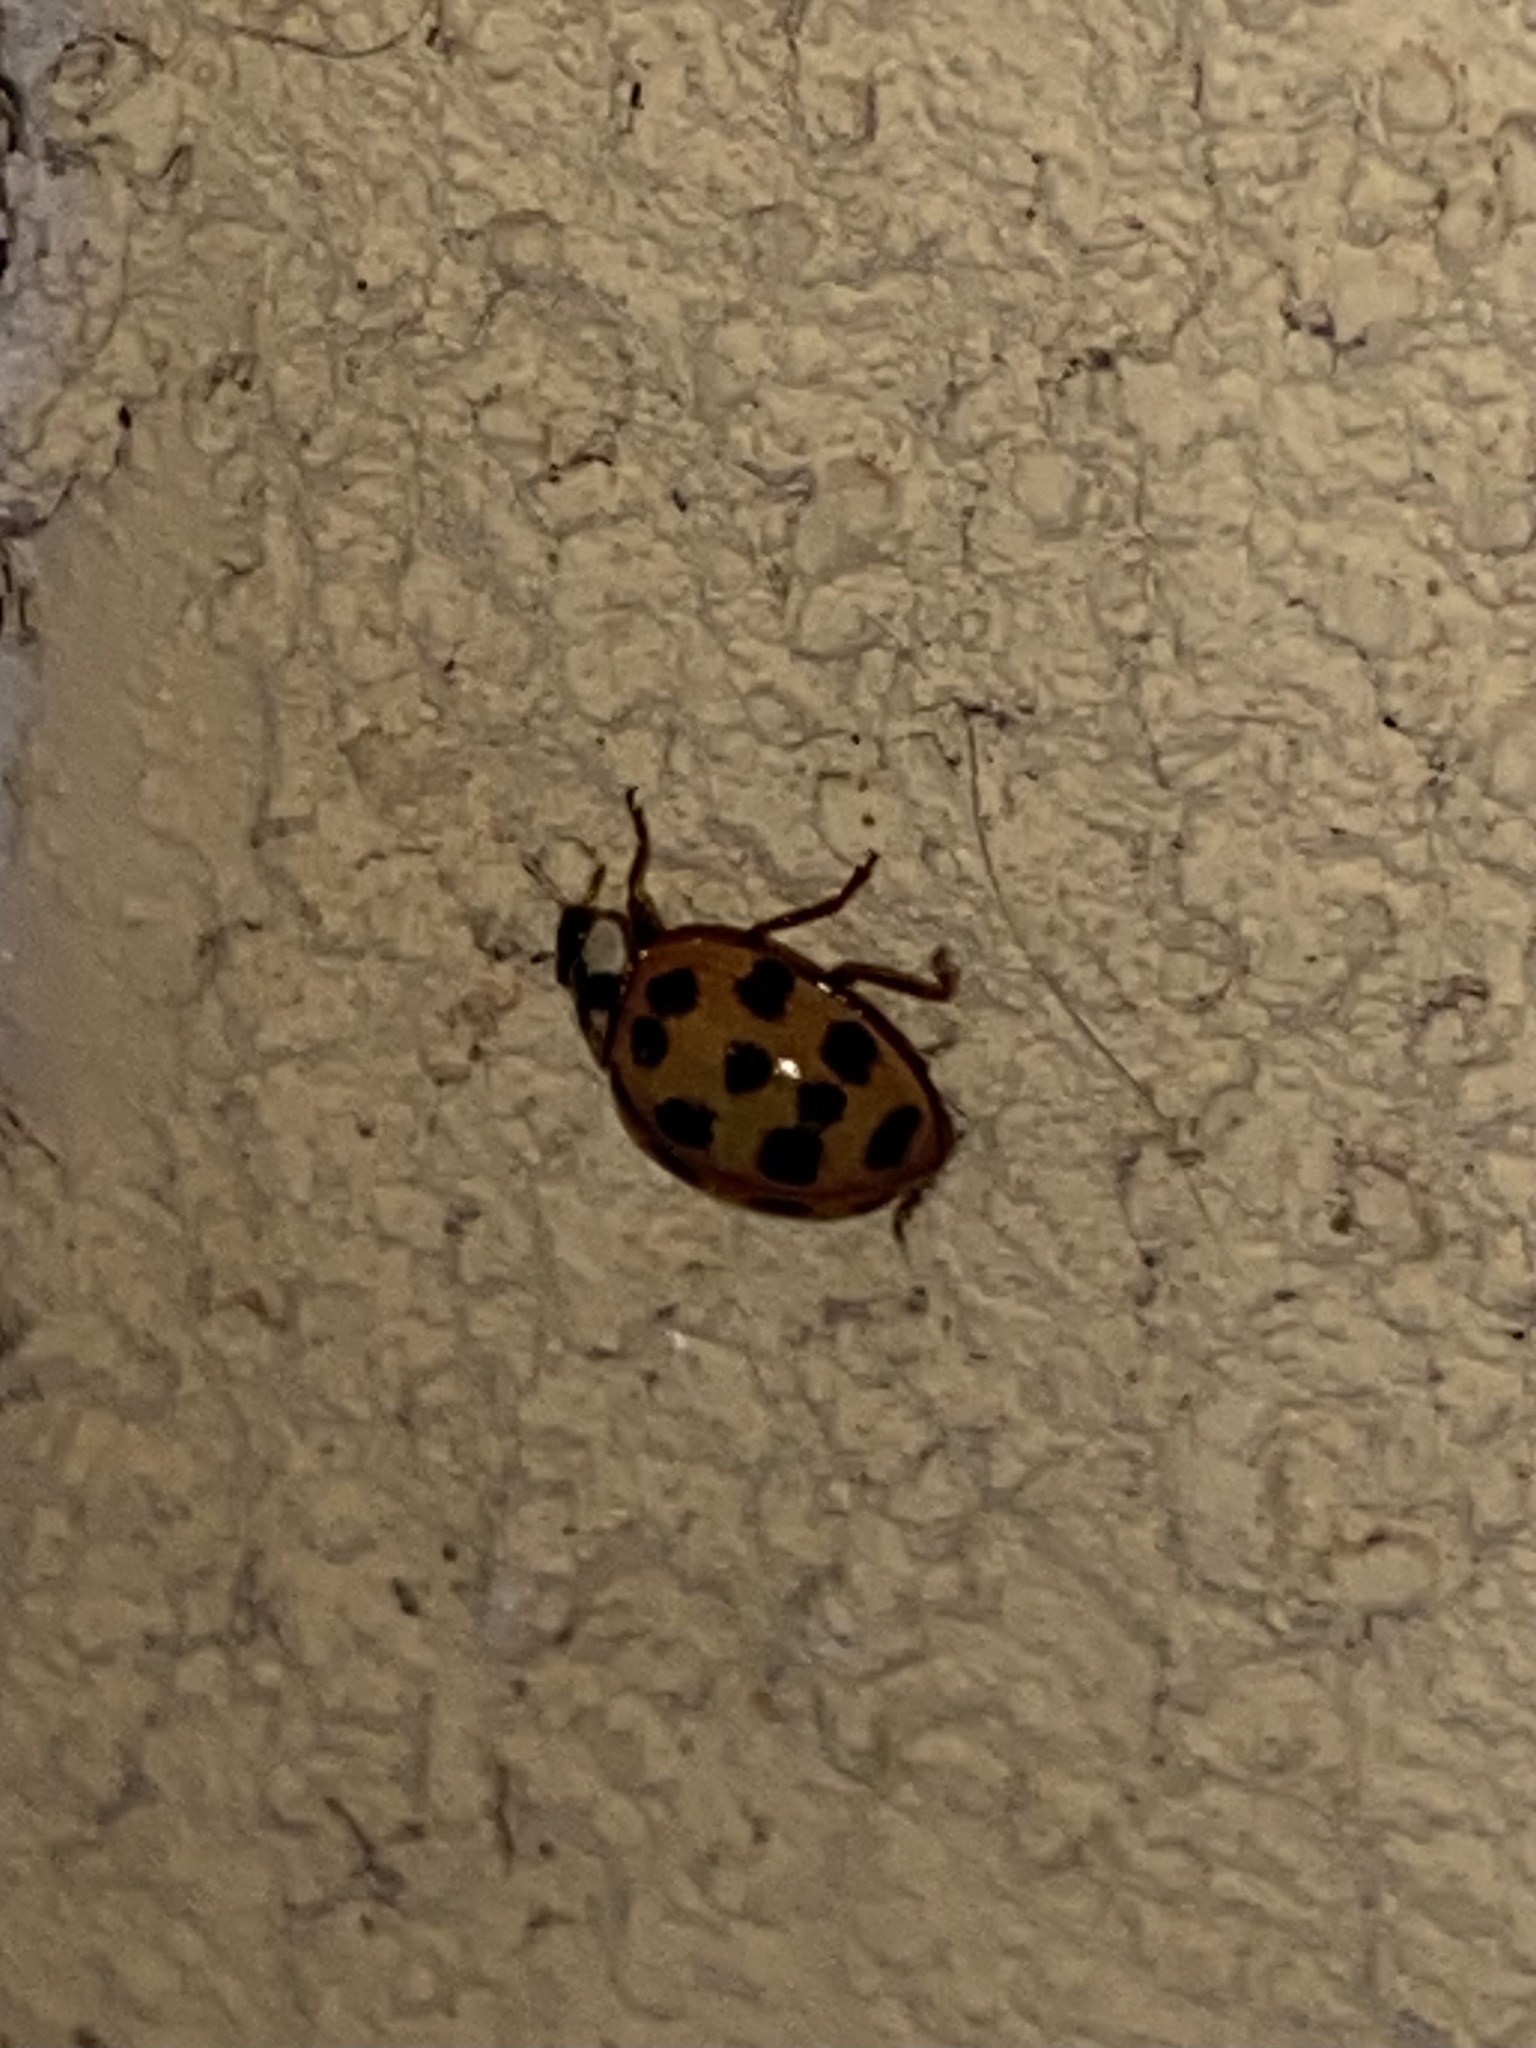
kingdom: Animalia
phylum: Arthropoda
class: Insecta
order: Coleoptera
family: Coccinellidae
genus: Harmonia
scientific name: Harmonia axyridis
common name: Harlequin ladybird
